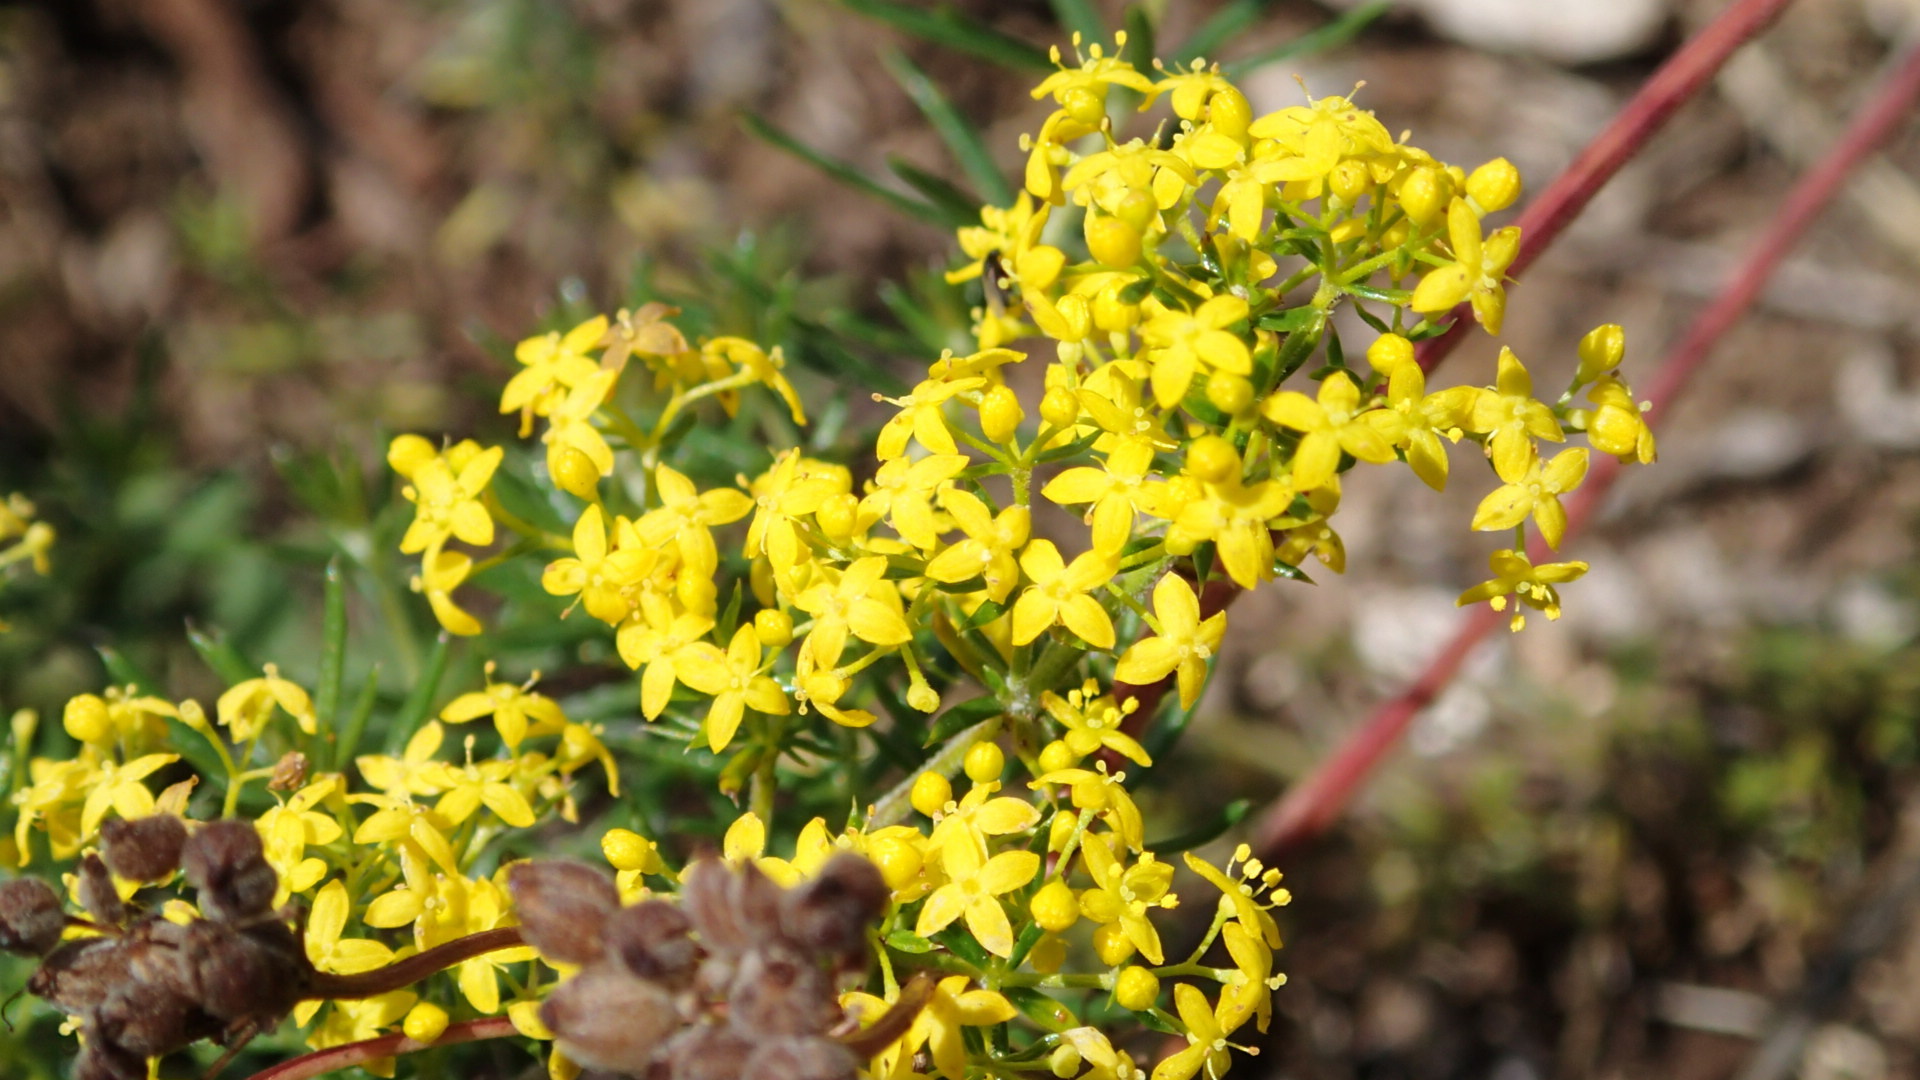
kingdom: Plantae
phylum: Tracheophyta
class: Magnoliopsida
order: Gentianales
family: Rubiaceae
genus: Galium
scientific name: Galium verum
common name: Lady's bedstraw
